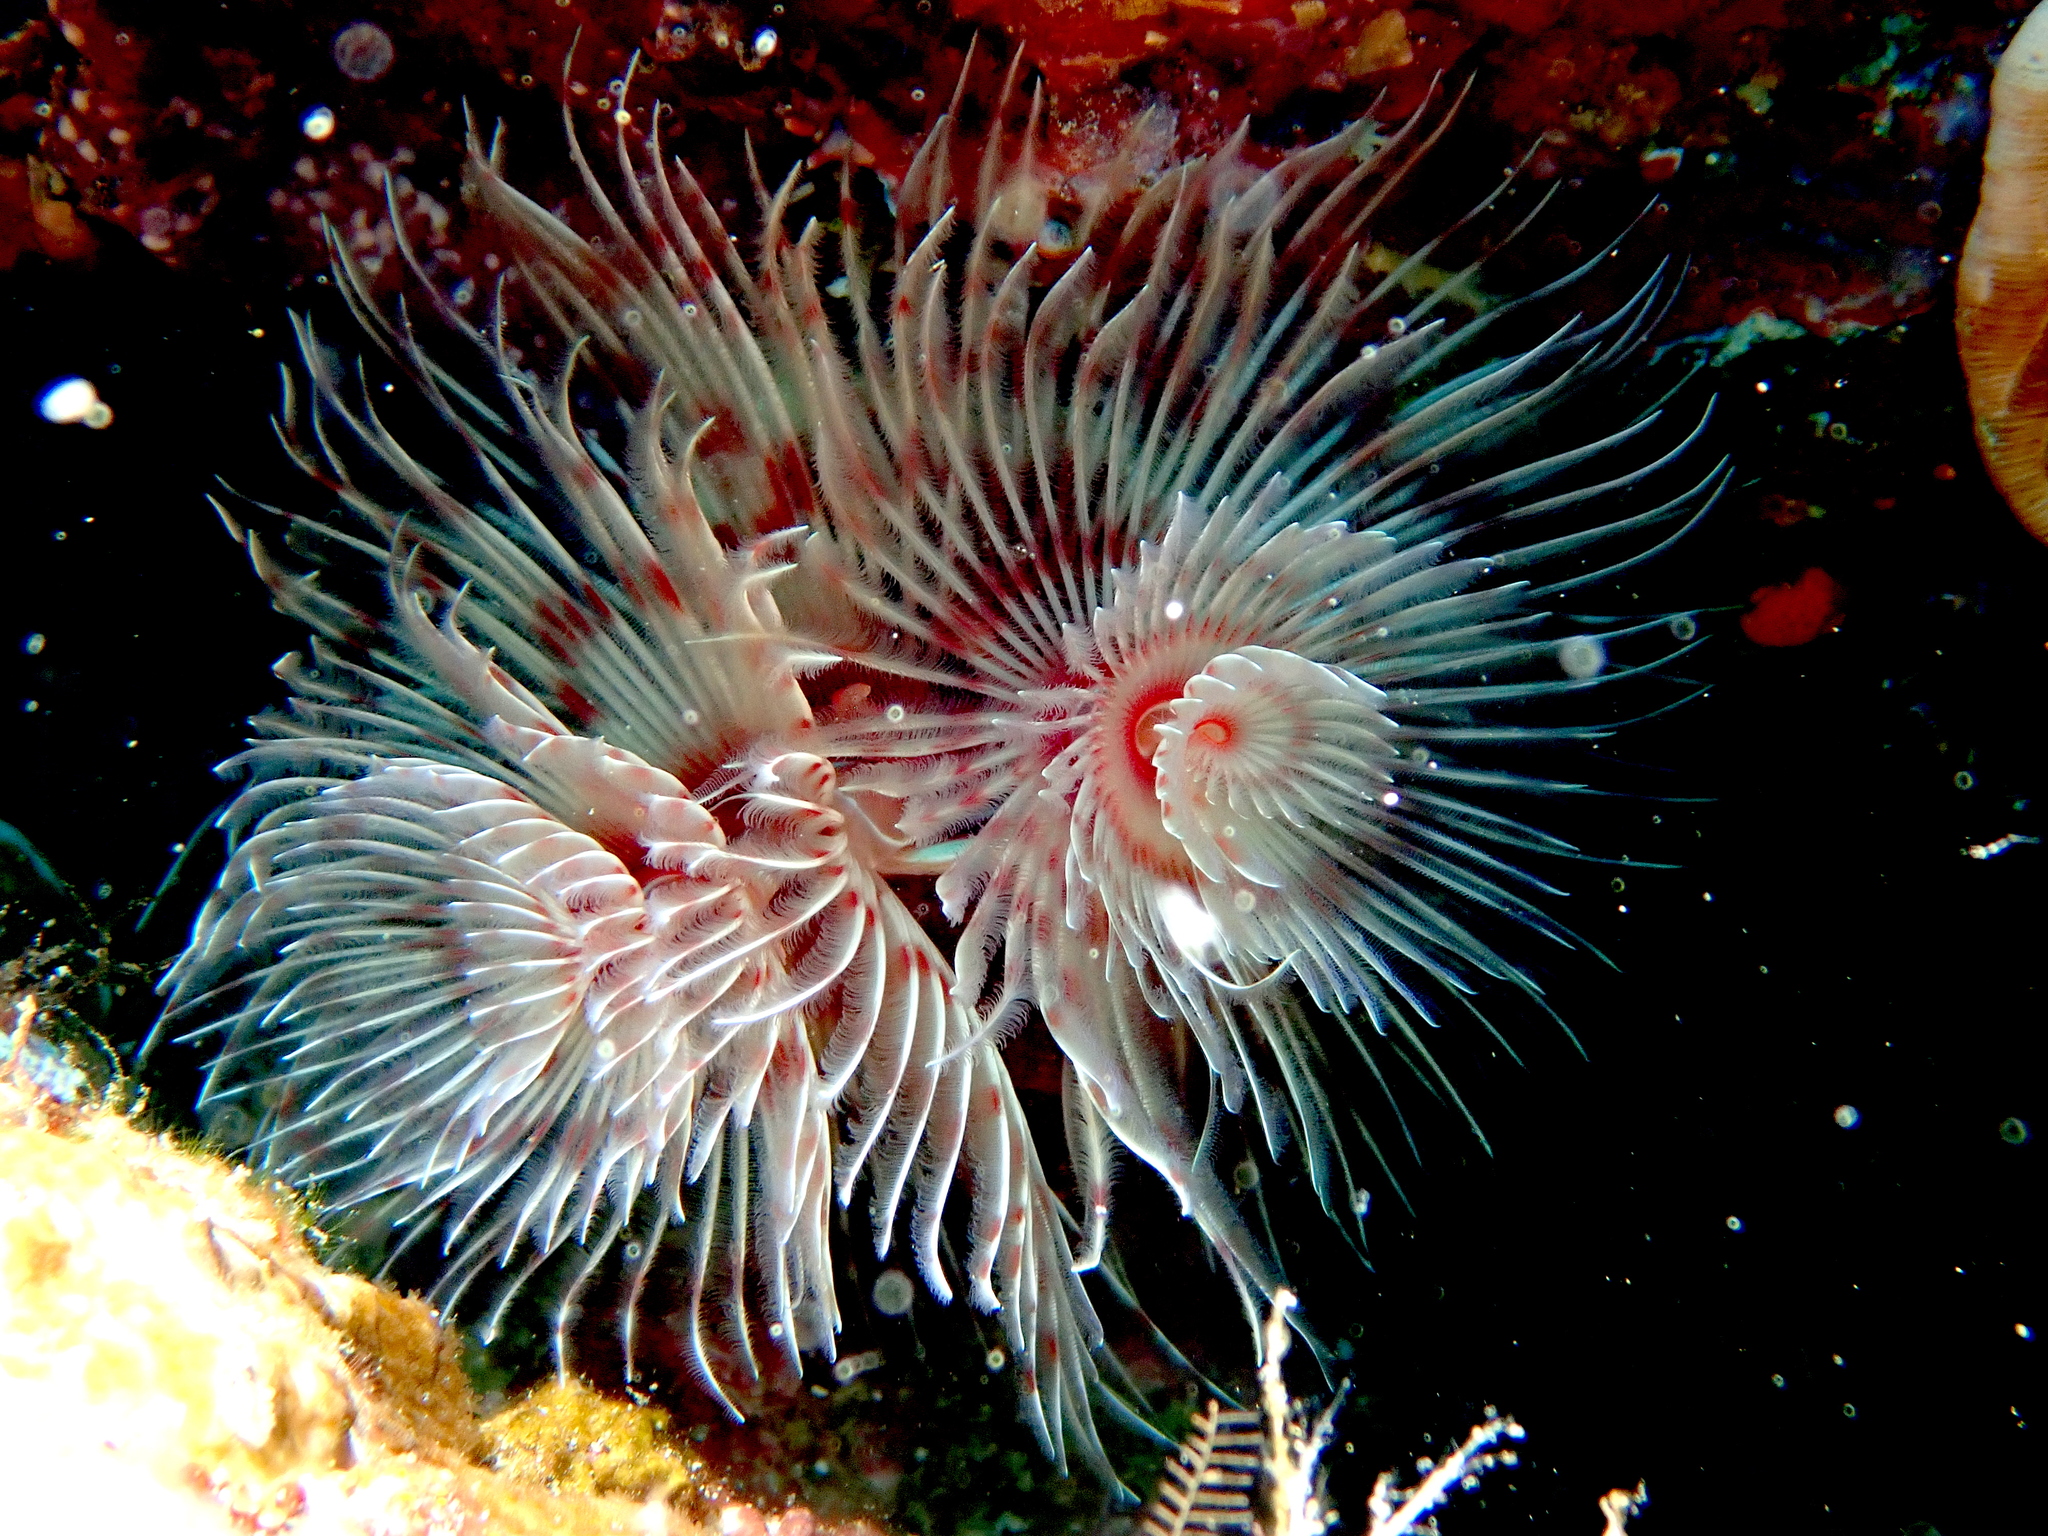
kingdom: Animalia
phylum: Annelida
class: Polychaeta
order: Sabellida
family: Serpulidae
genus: Protula
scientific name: Protula bispiralis
